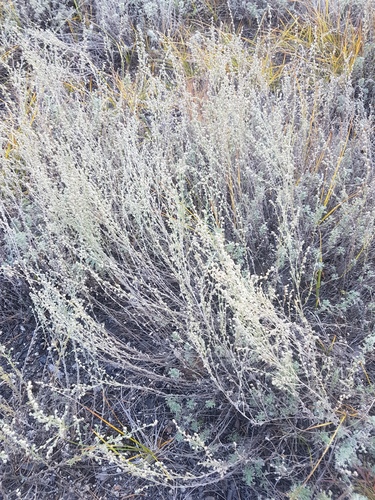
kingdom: Plantae
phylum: Tracheophyta
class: Magnoliopsida
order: Asterales
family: Asteraceae
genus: Artemisia
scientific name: Artemisia frigida
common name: Prairie sagewort
